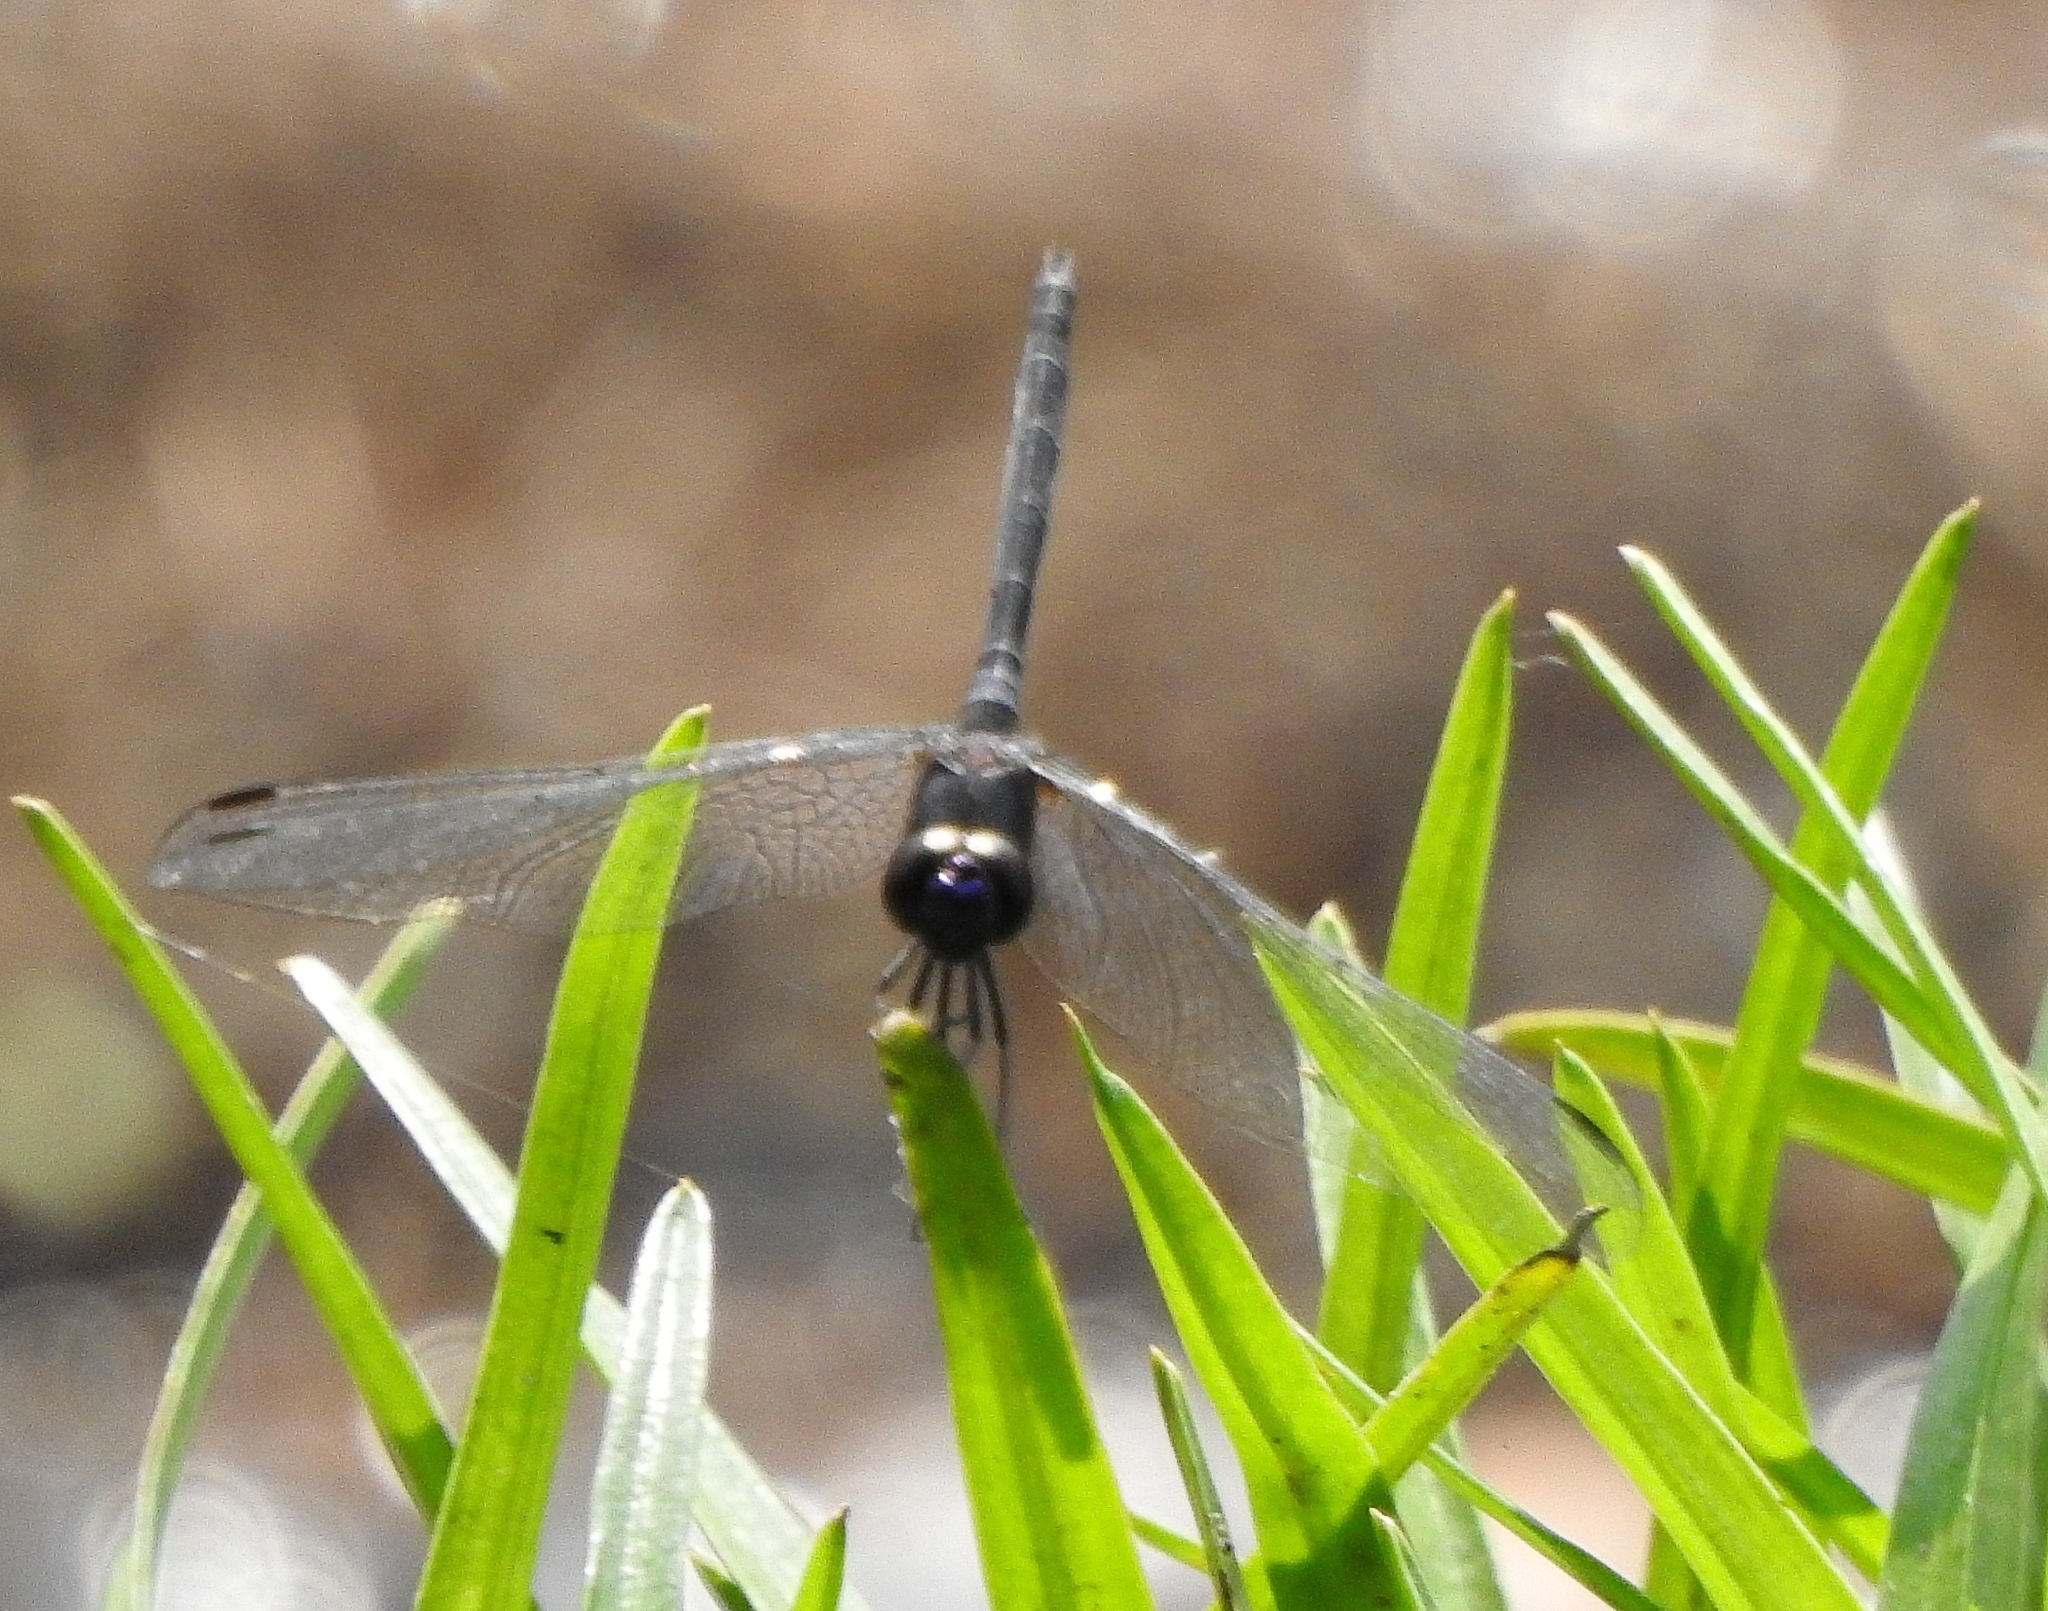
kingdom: Animalia
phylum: Arthropoda
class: Insecta
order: Odonata
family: Libellulidae
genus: Trithemis
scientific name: Trithemis festiva
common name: Indigo dropwing
